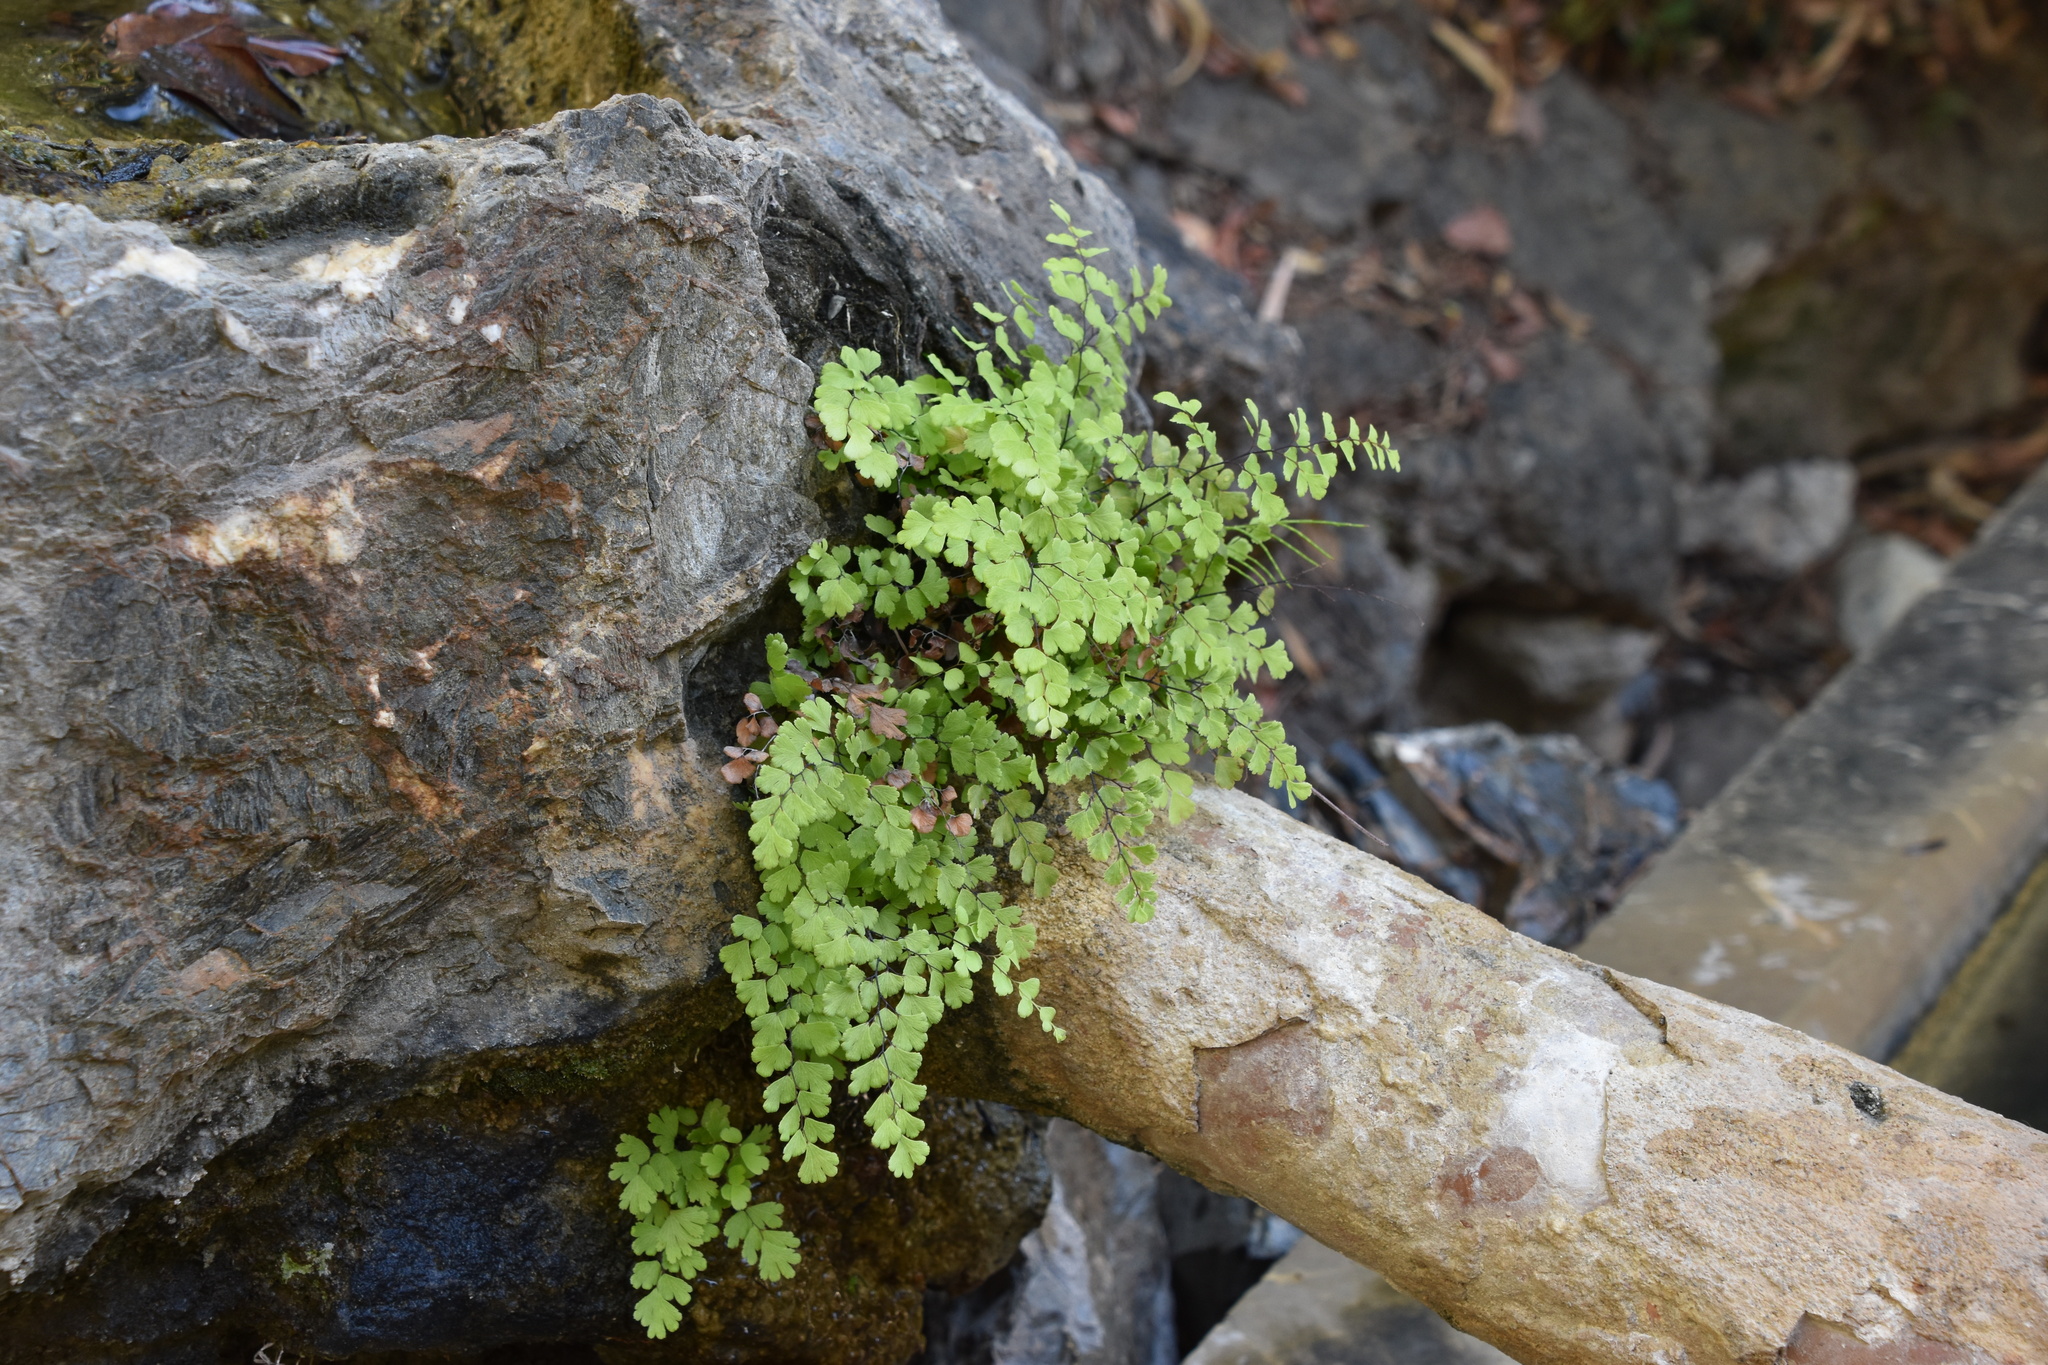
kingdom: Plantae
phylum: Tracheophyta
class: Polypodiopsida
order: Polypodiales
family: Pteridaceae
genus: Adiantum
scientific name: Adiantum capillus-veneris
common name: Maidenhair fern
